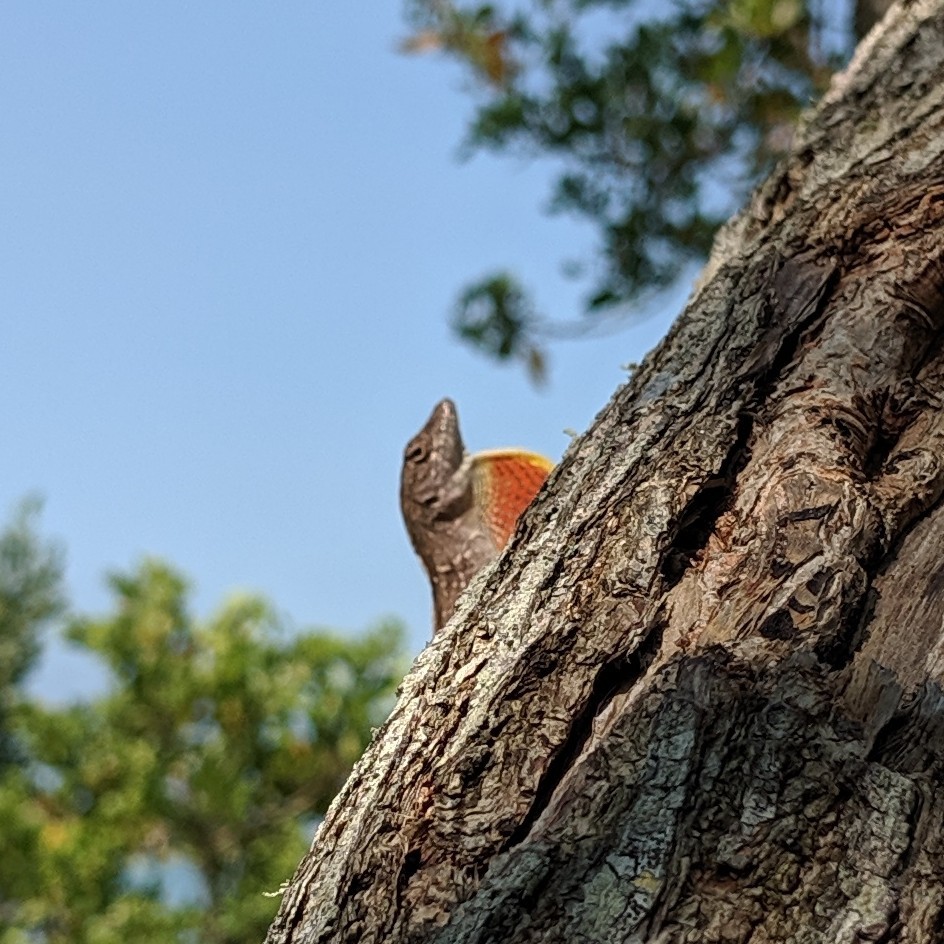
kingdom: Animalia
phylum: Chordata
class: Squamata
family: Dactyloidae
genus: Anolis
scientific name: Anolis sagrei
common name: Brown anole
